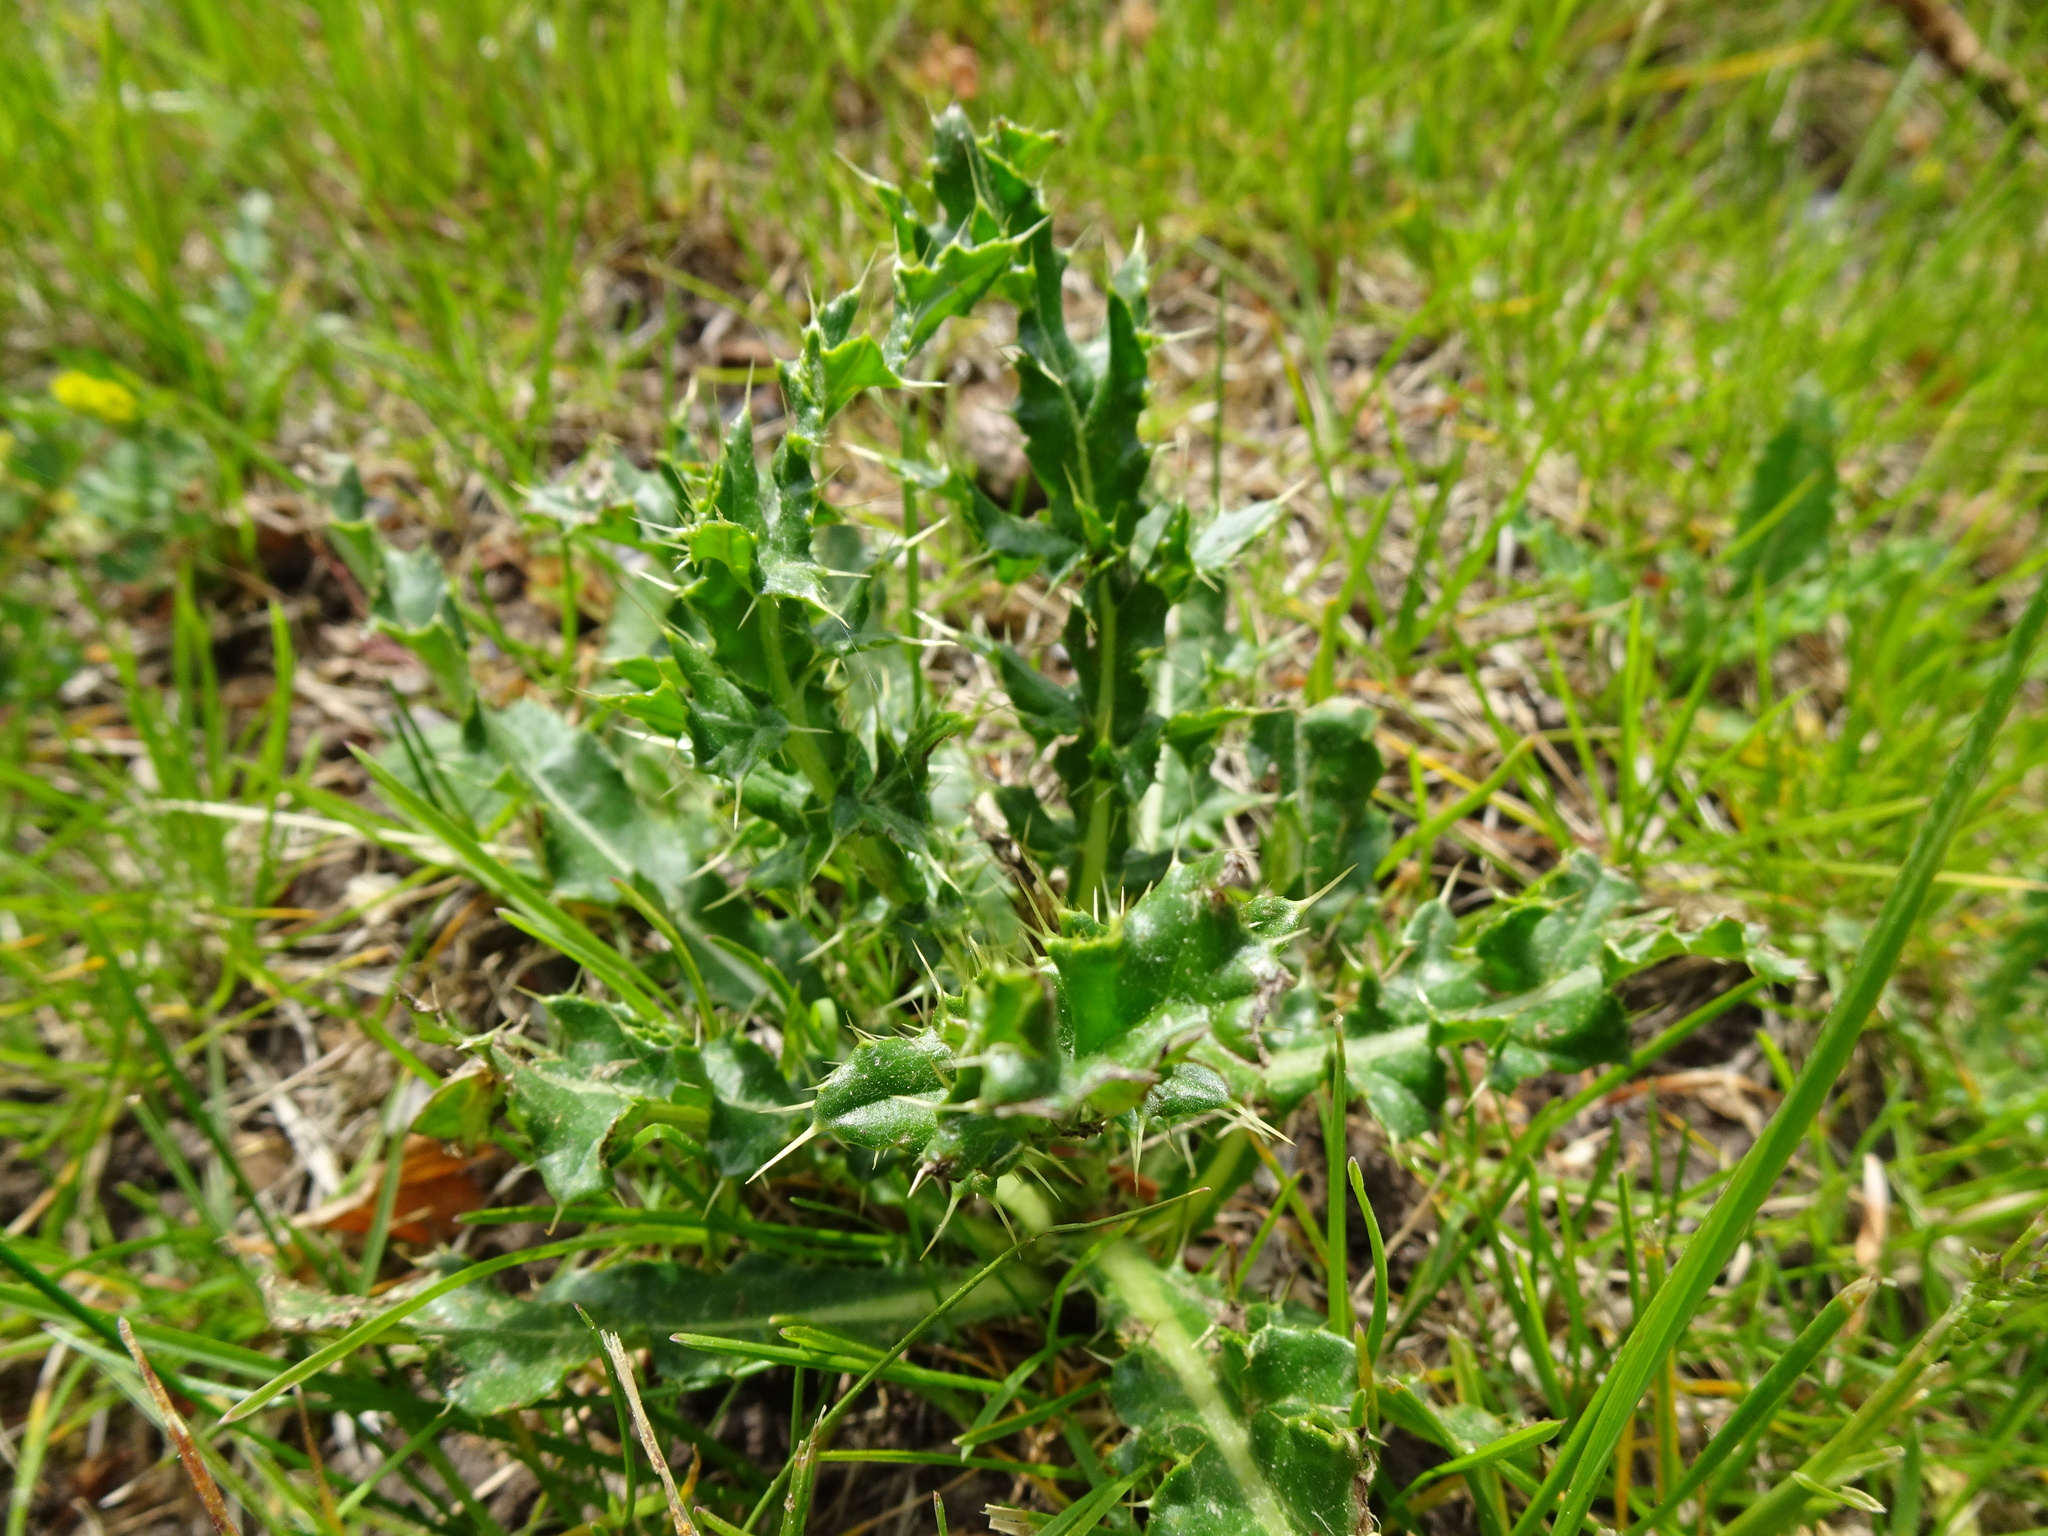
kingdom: Plantae
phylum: Tracheophyta
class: Magnoliopsida
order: Asterales
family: Asteraceae
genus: Cirsium
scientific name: Cirsium arvense
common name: Creeping thistle
